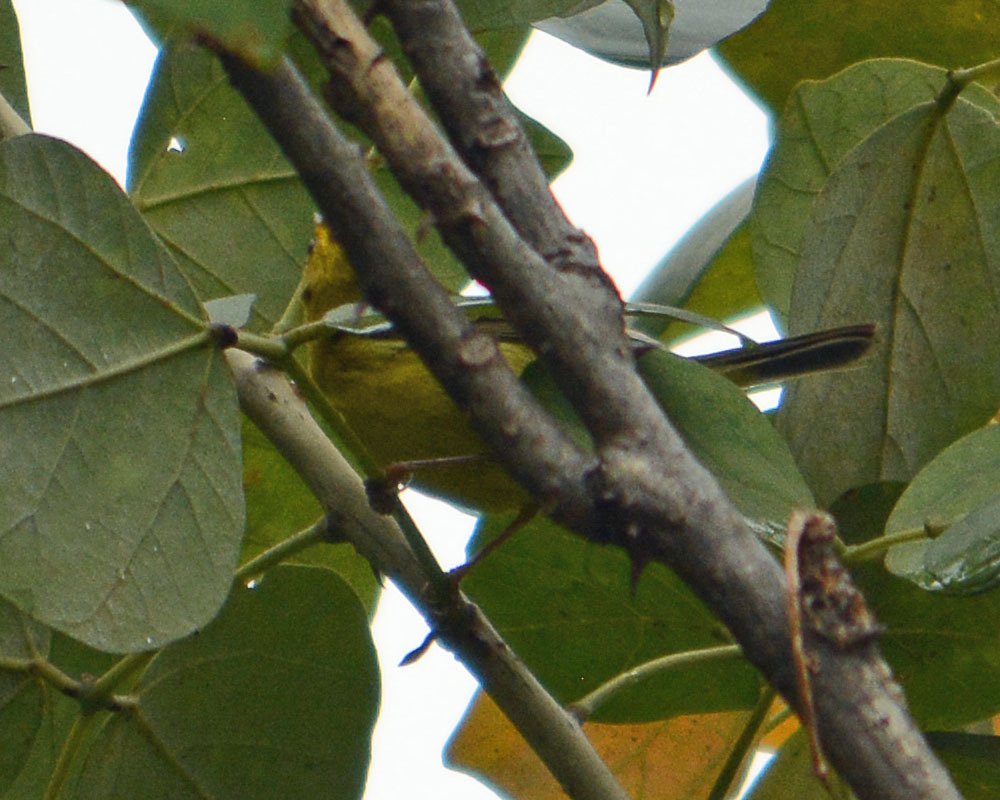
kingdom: Animalia
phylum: Chordata
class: Aves
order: Passeriformes
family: Parulidae
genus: Cardellina
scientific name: Cardellina pusilla
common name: Wilson's warbler
